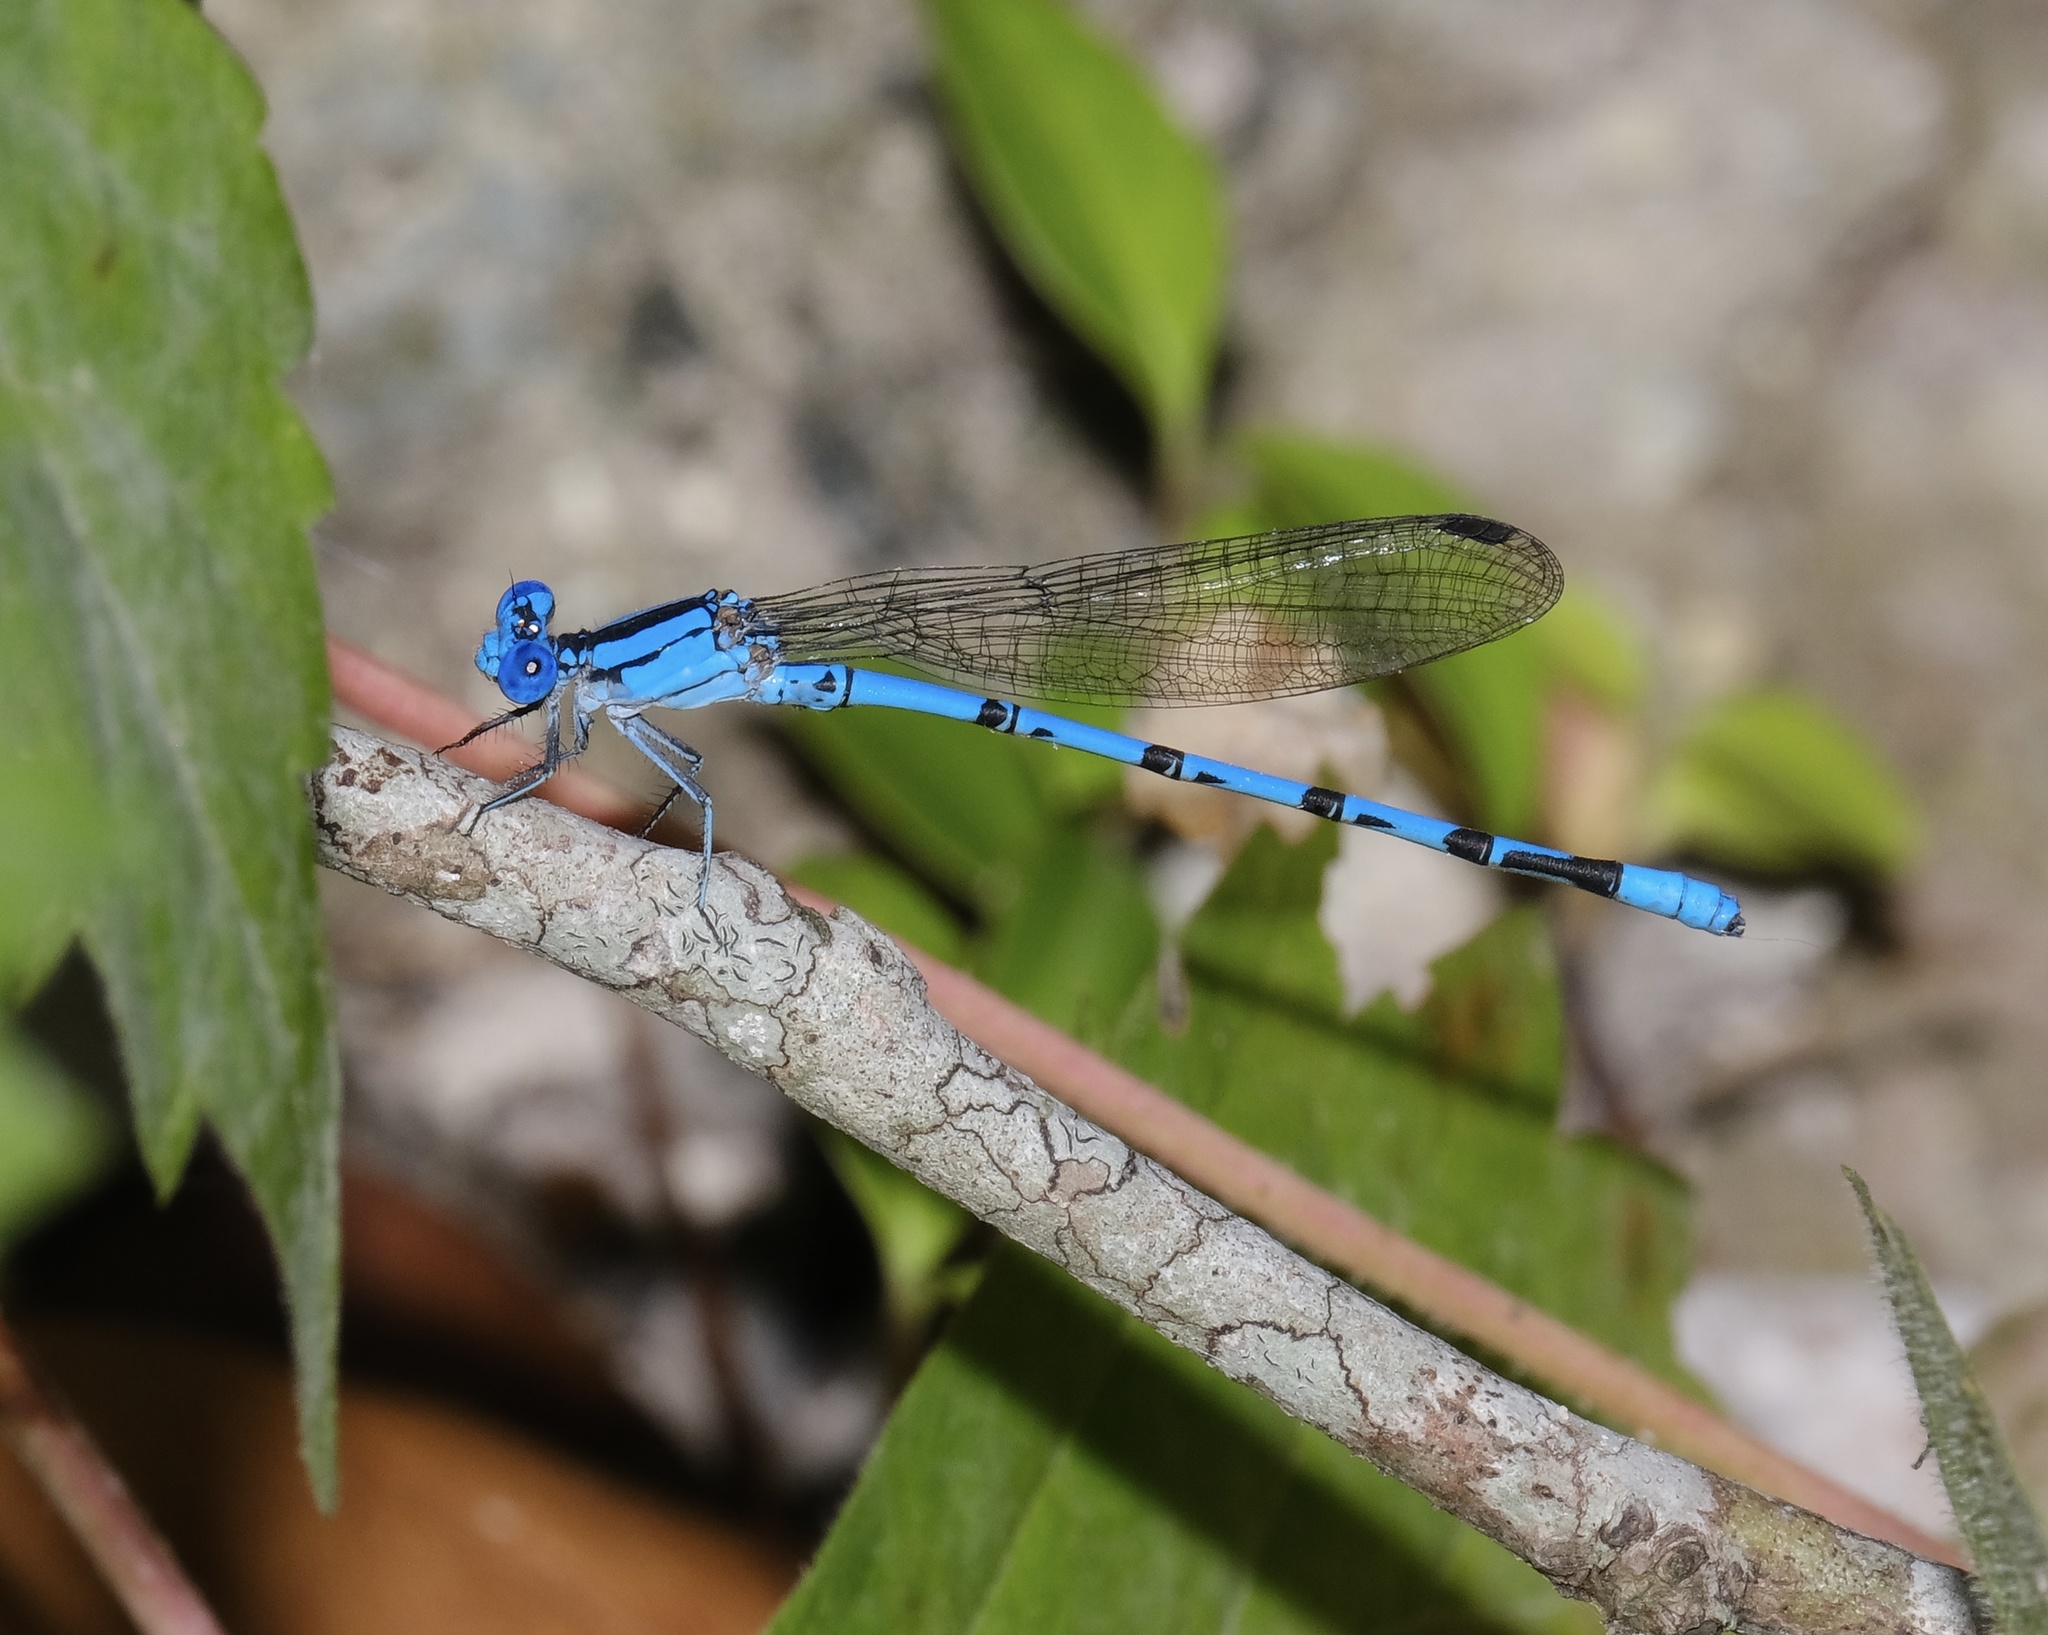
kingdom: Animalia
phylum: Arthropoda
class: Insecta
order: Odonata
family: Coenagrionidae
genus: Argia
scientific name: Argia funebris
